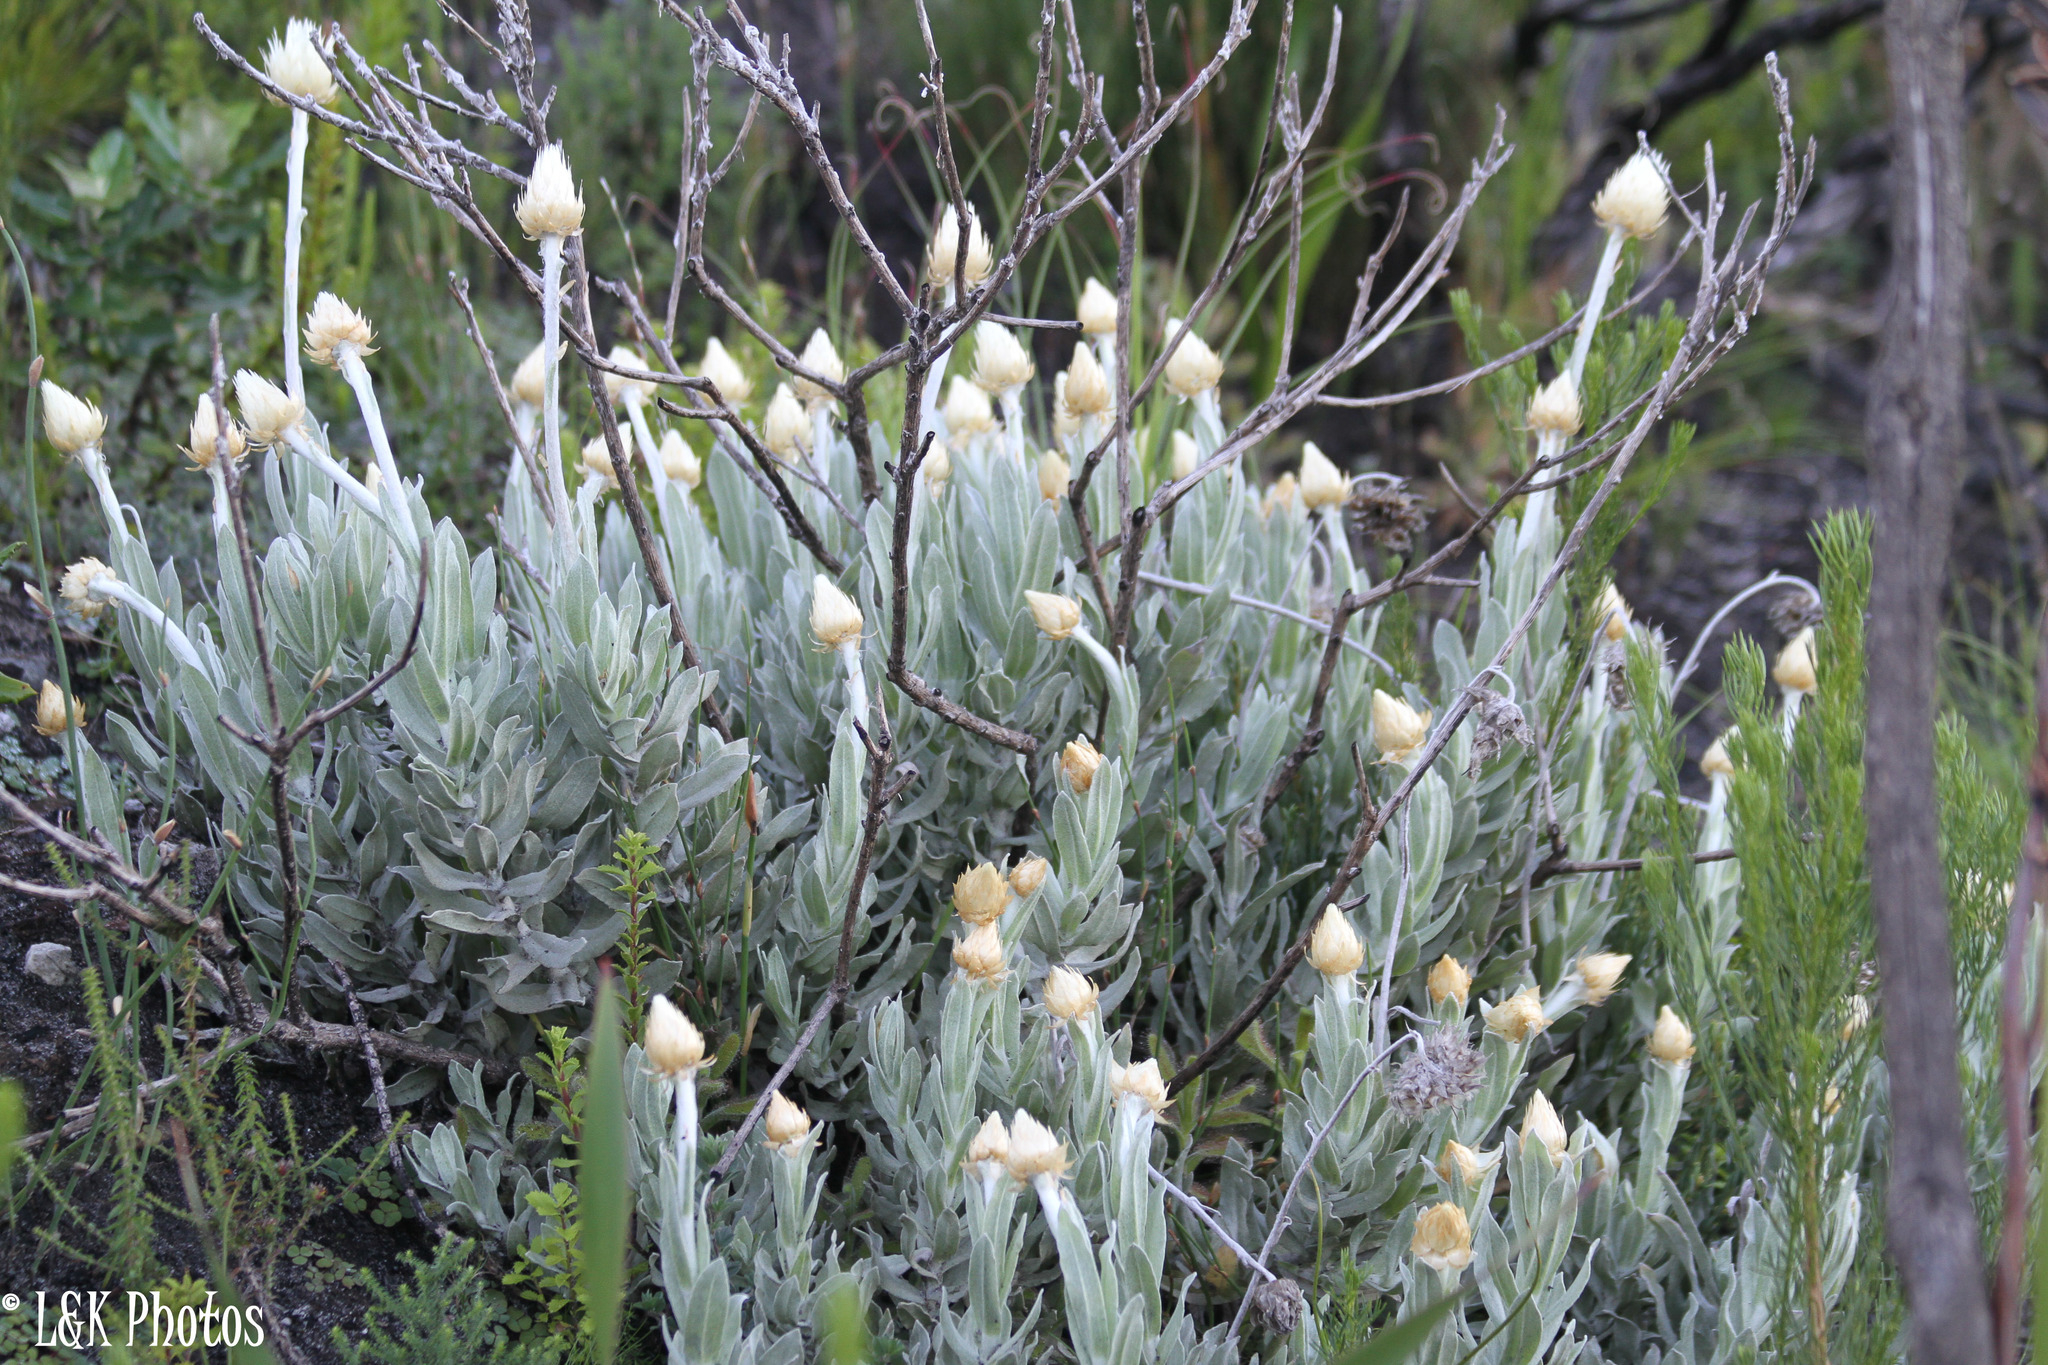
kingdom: Plantae
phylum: Tracheophyta
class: Magnoliopsida
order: Asterales
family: Asteraceae
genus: Syncarpha
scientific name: Syncarpha speciosissima
